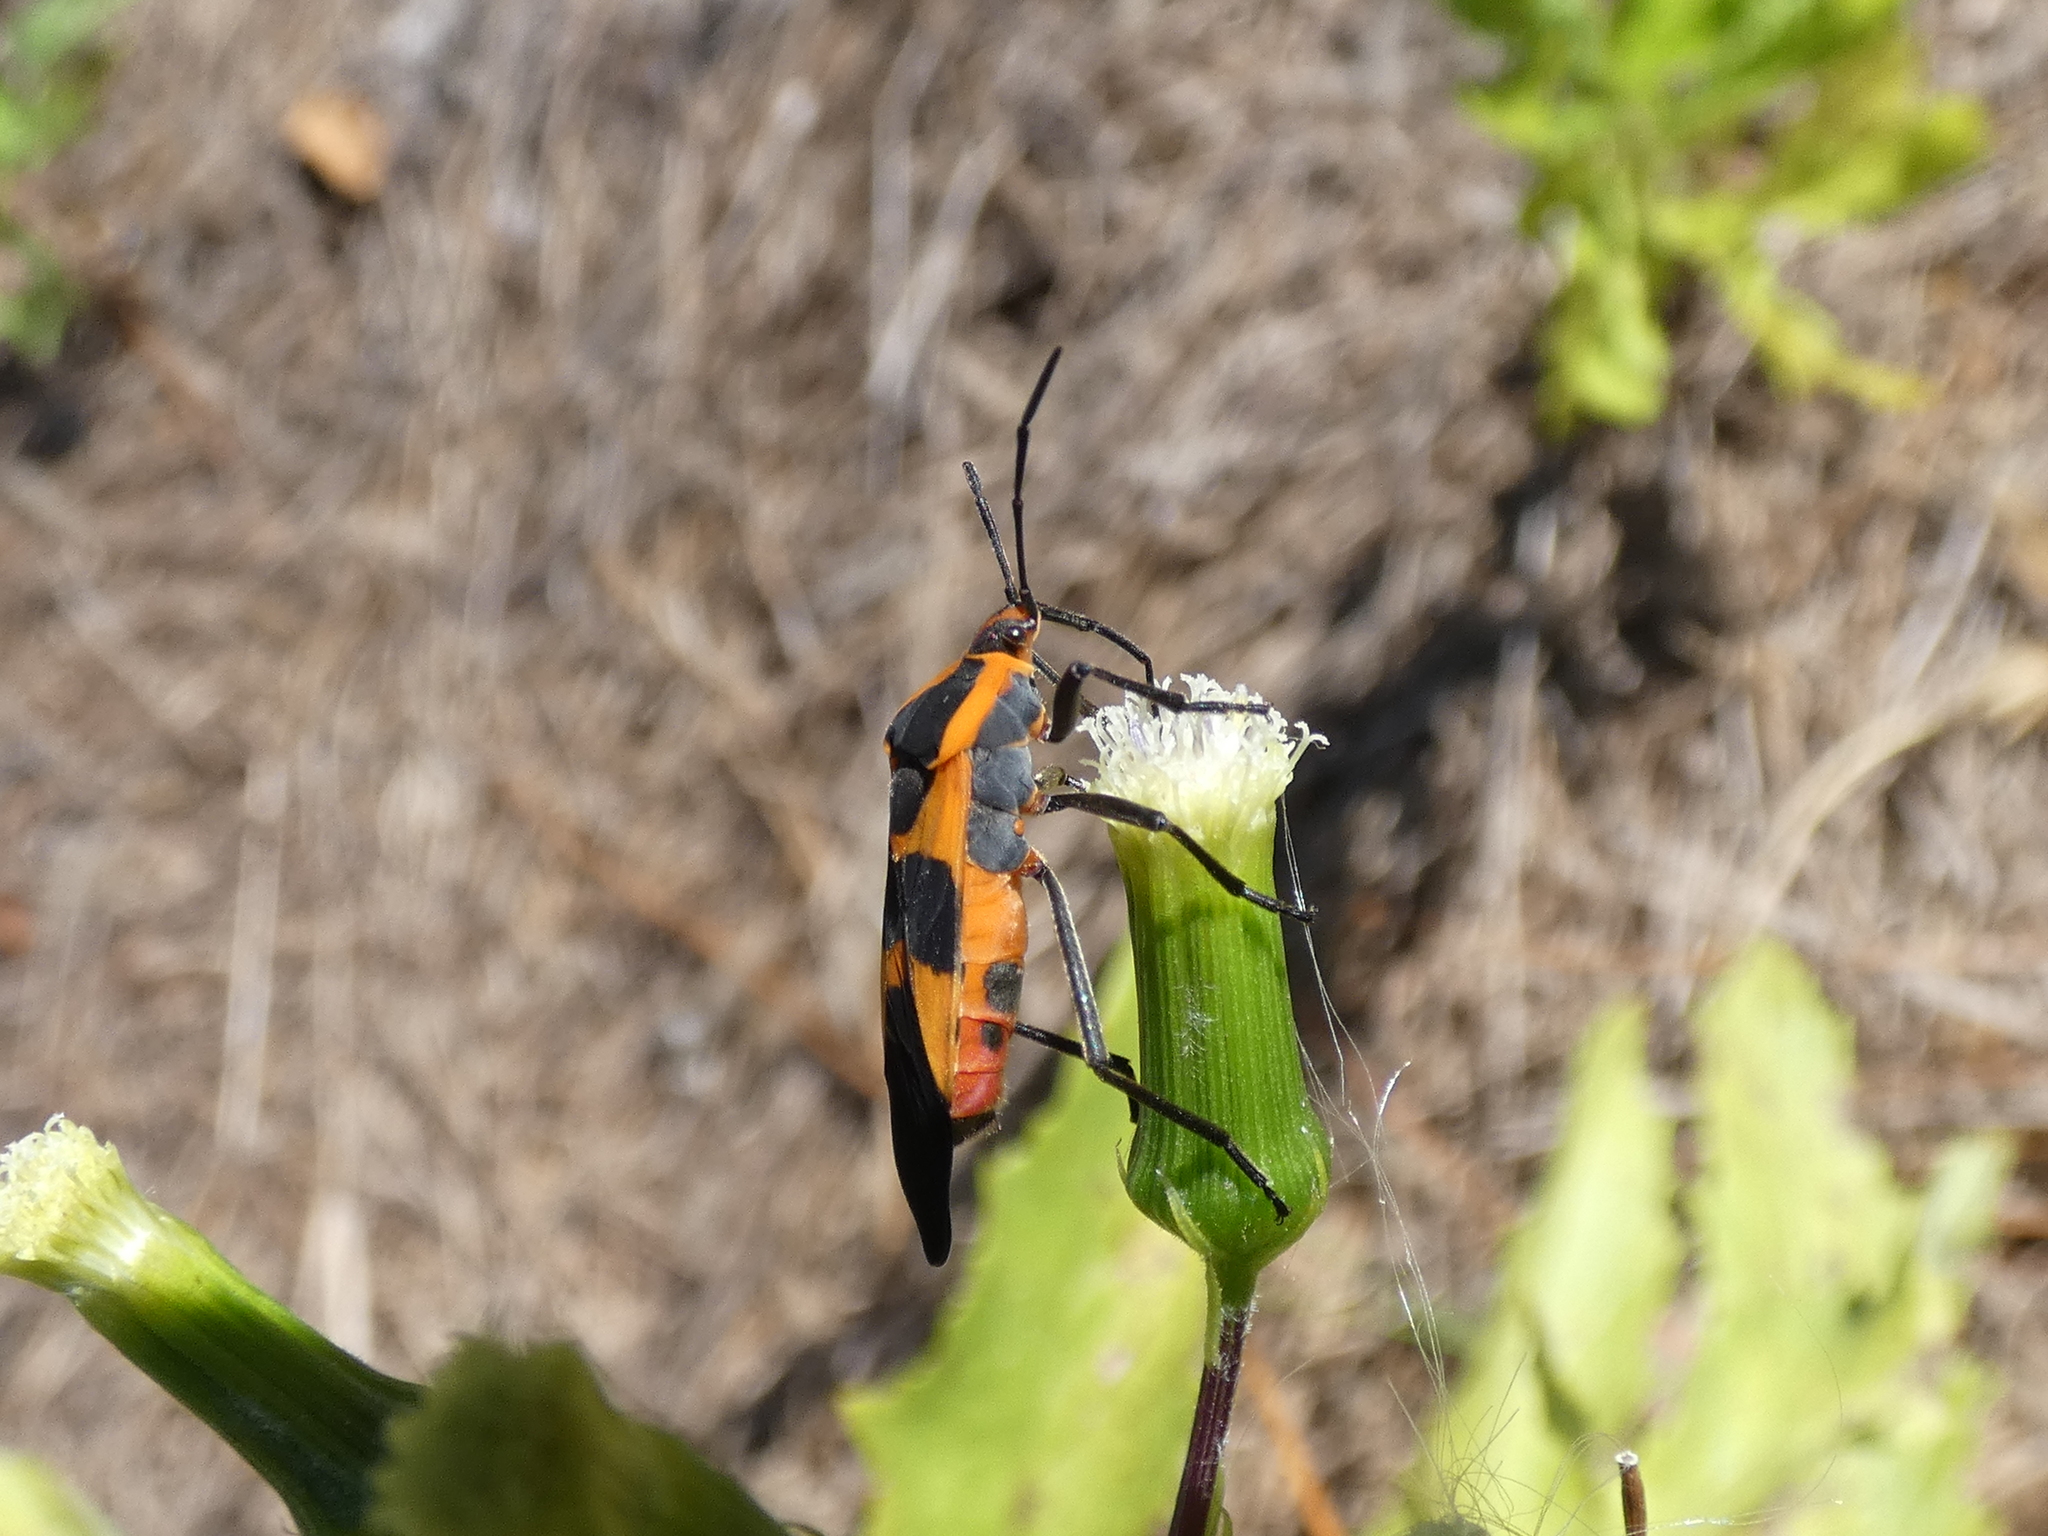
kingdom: Animalia
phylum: Arthropoda
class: Insecta
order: Hemiptera
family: Lygaeidae
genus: Oncopeltus
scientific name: Oncopeltus fasciatus
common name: Large milkweed bug
